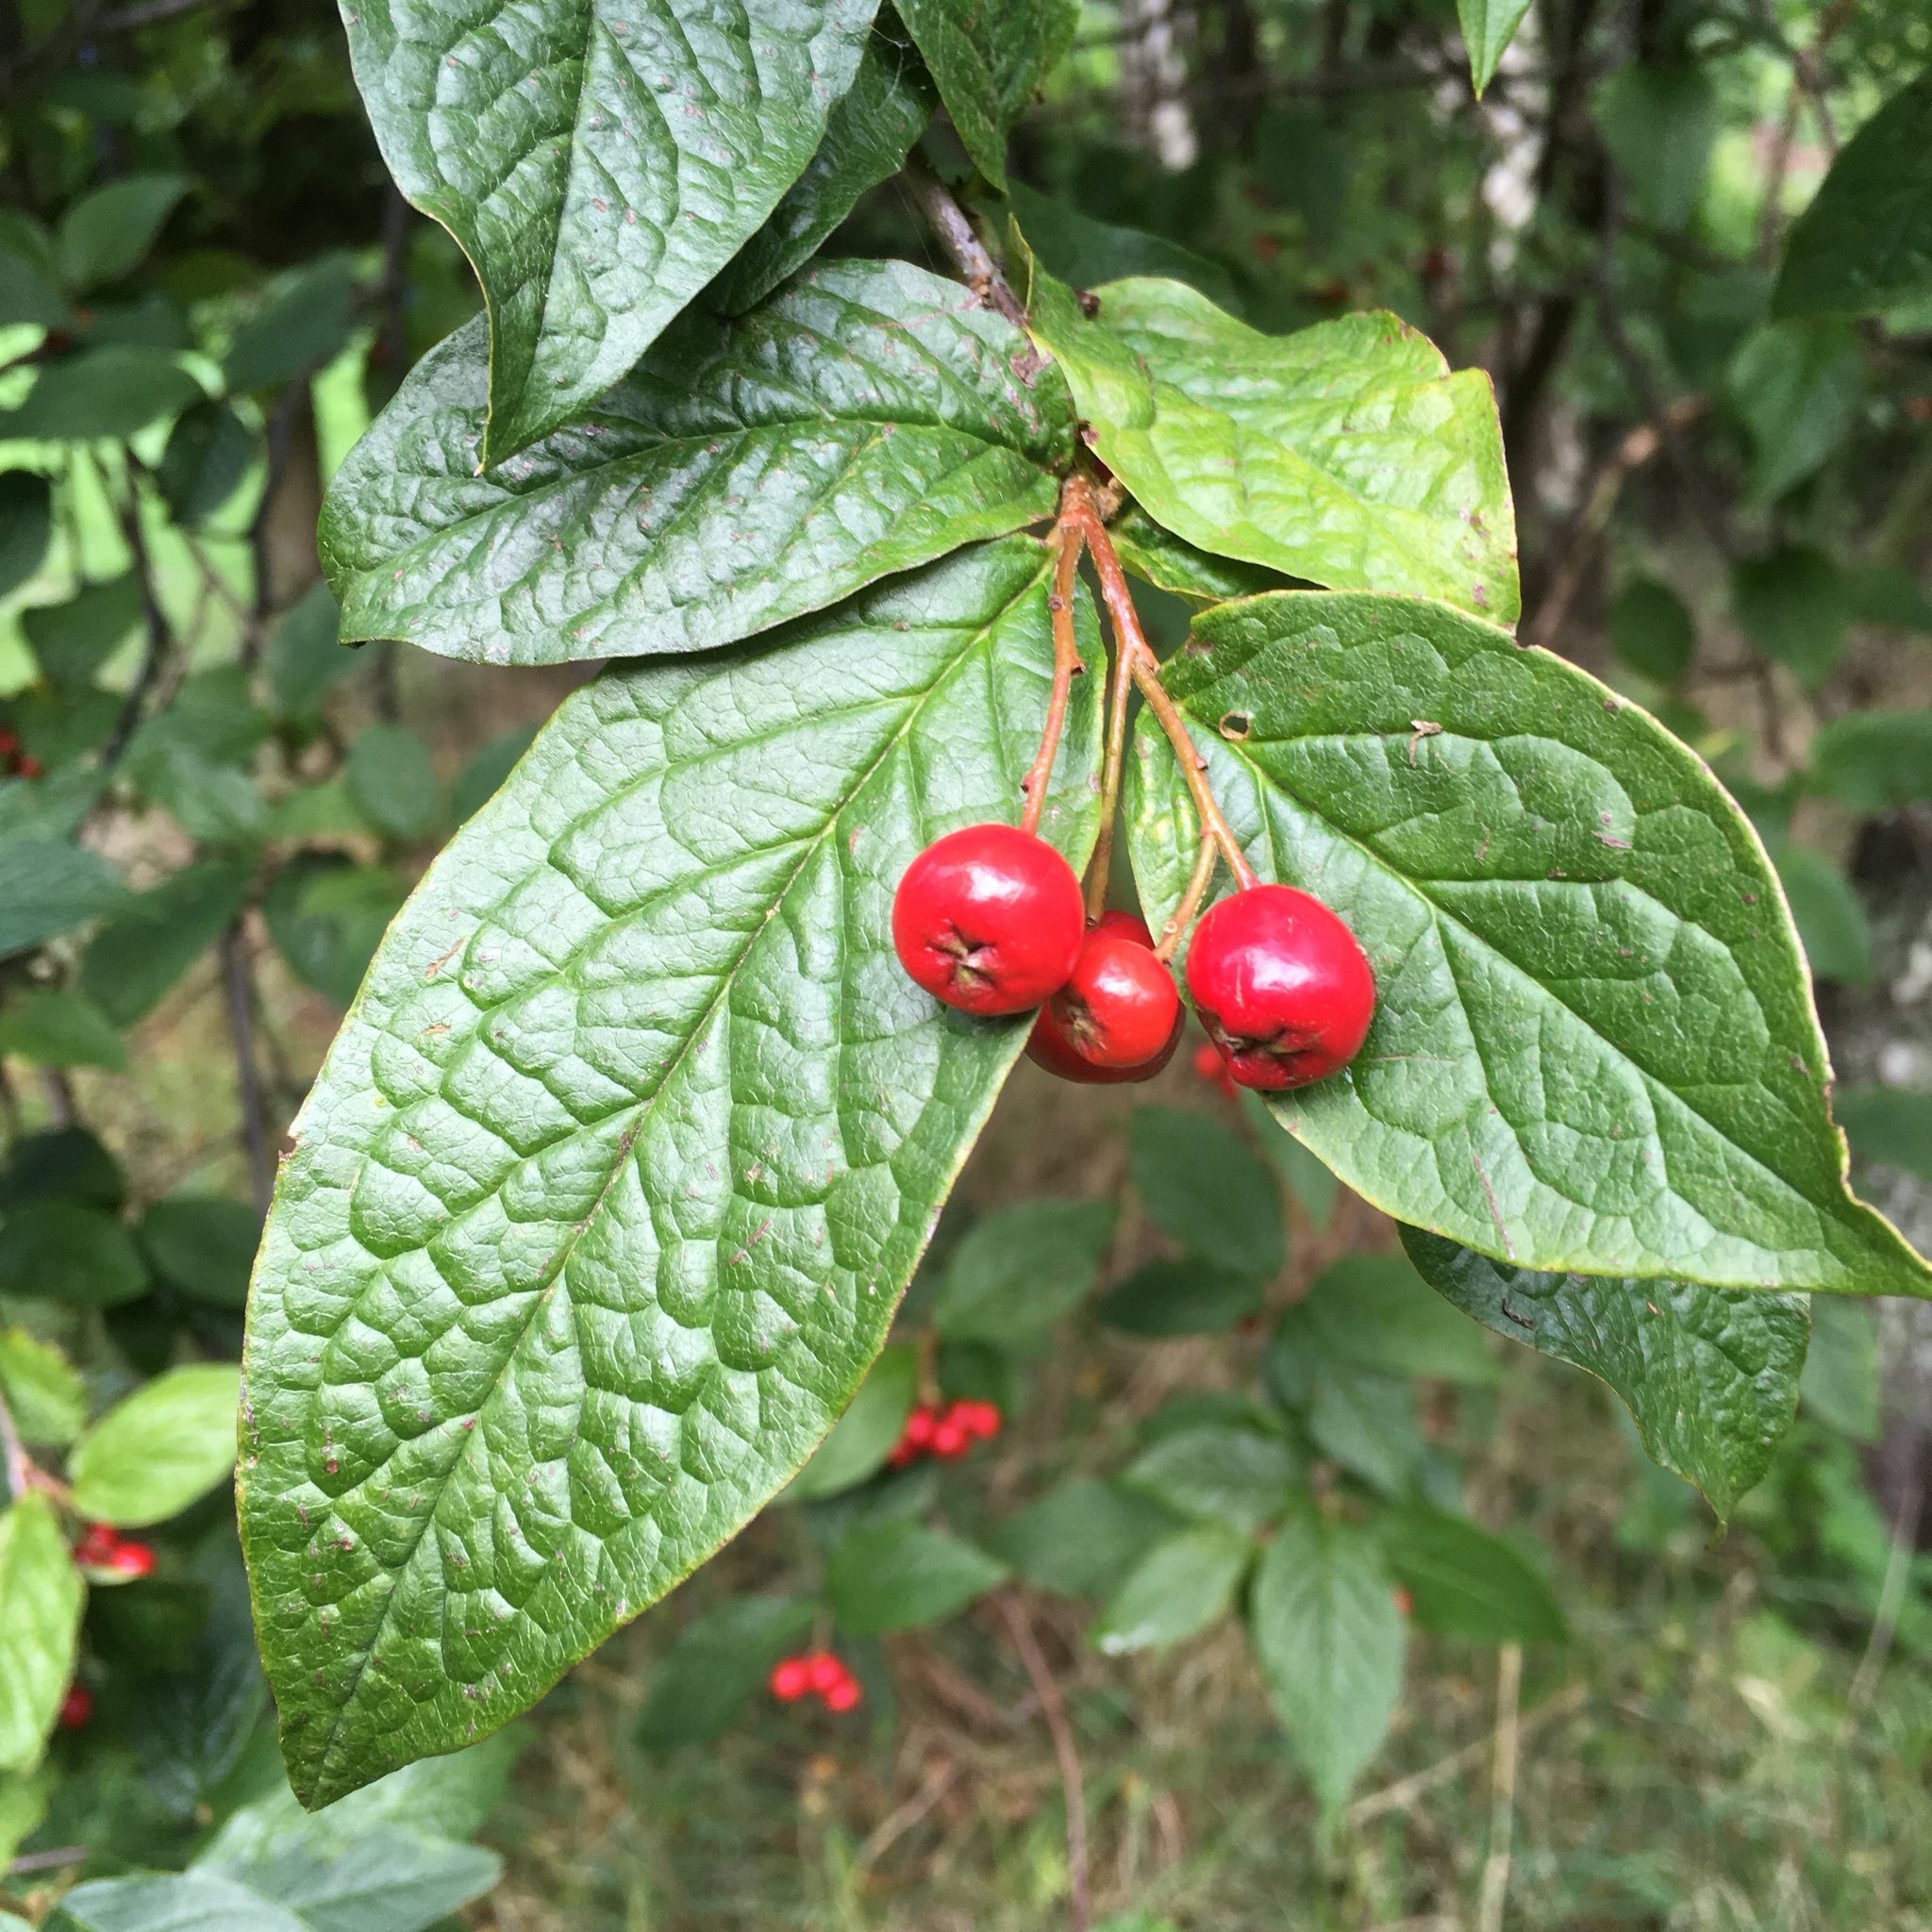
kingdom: Plantae
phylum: Tracheophyta
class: Magnoliopsida
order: Rosales
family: Rosaceae
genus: Cotoneaster
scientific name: Cotoneaster bullatus
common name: Hollyberry cotoneaster
